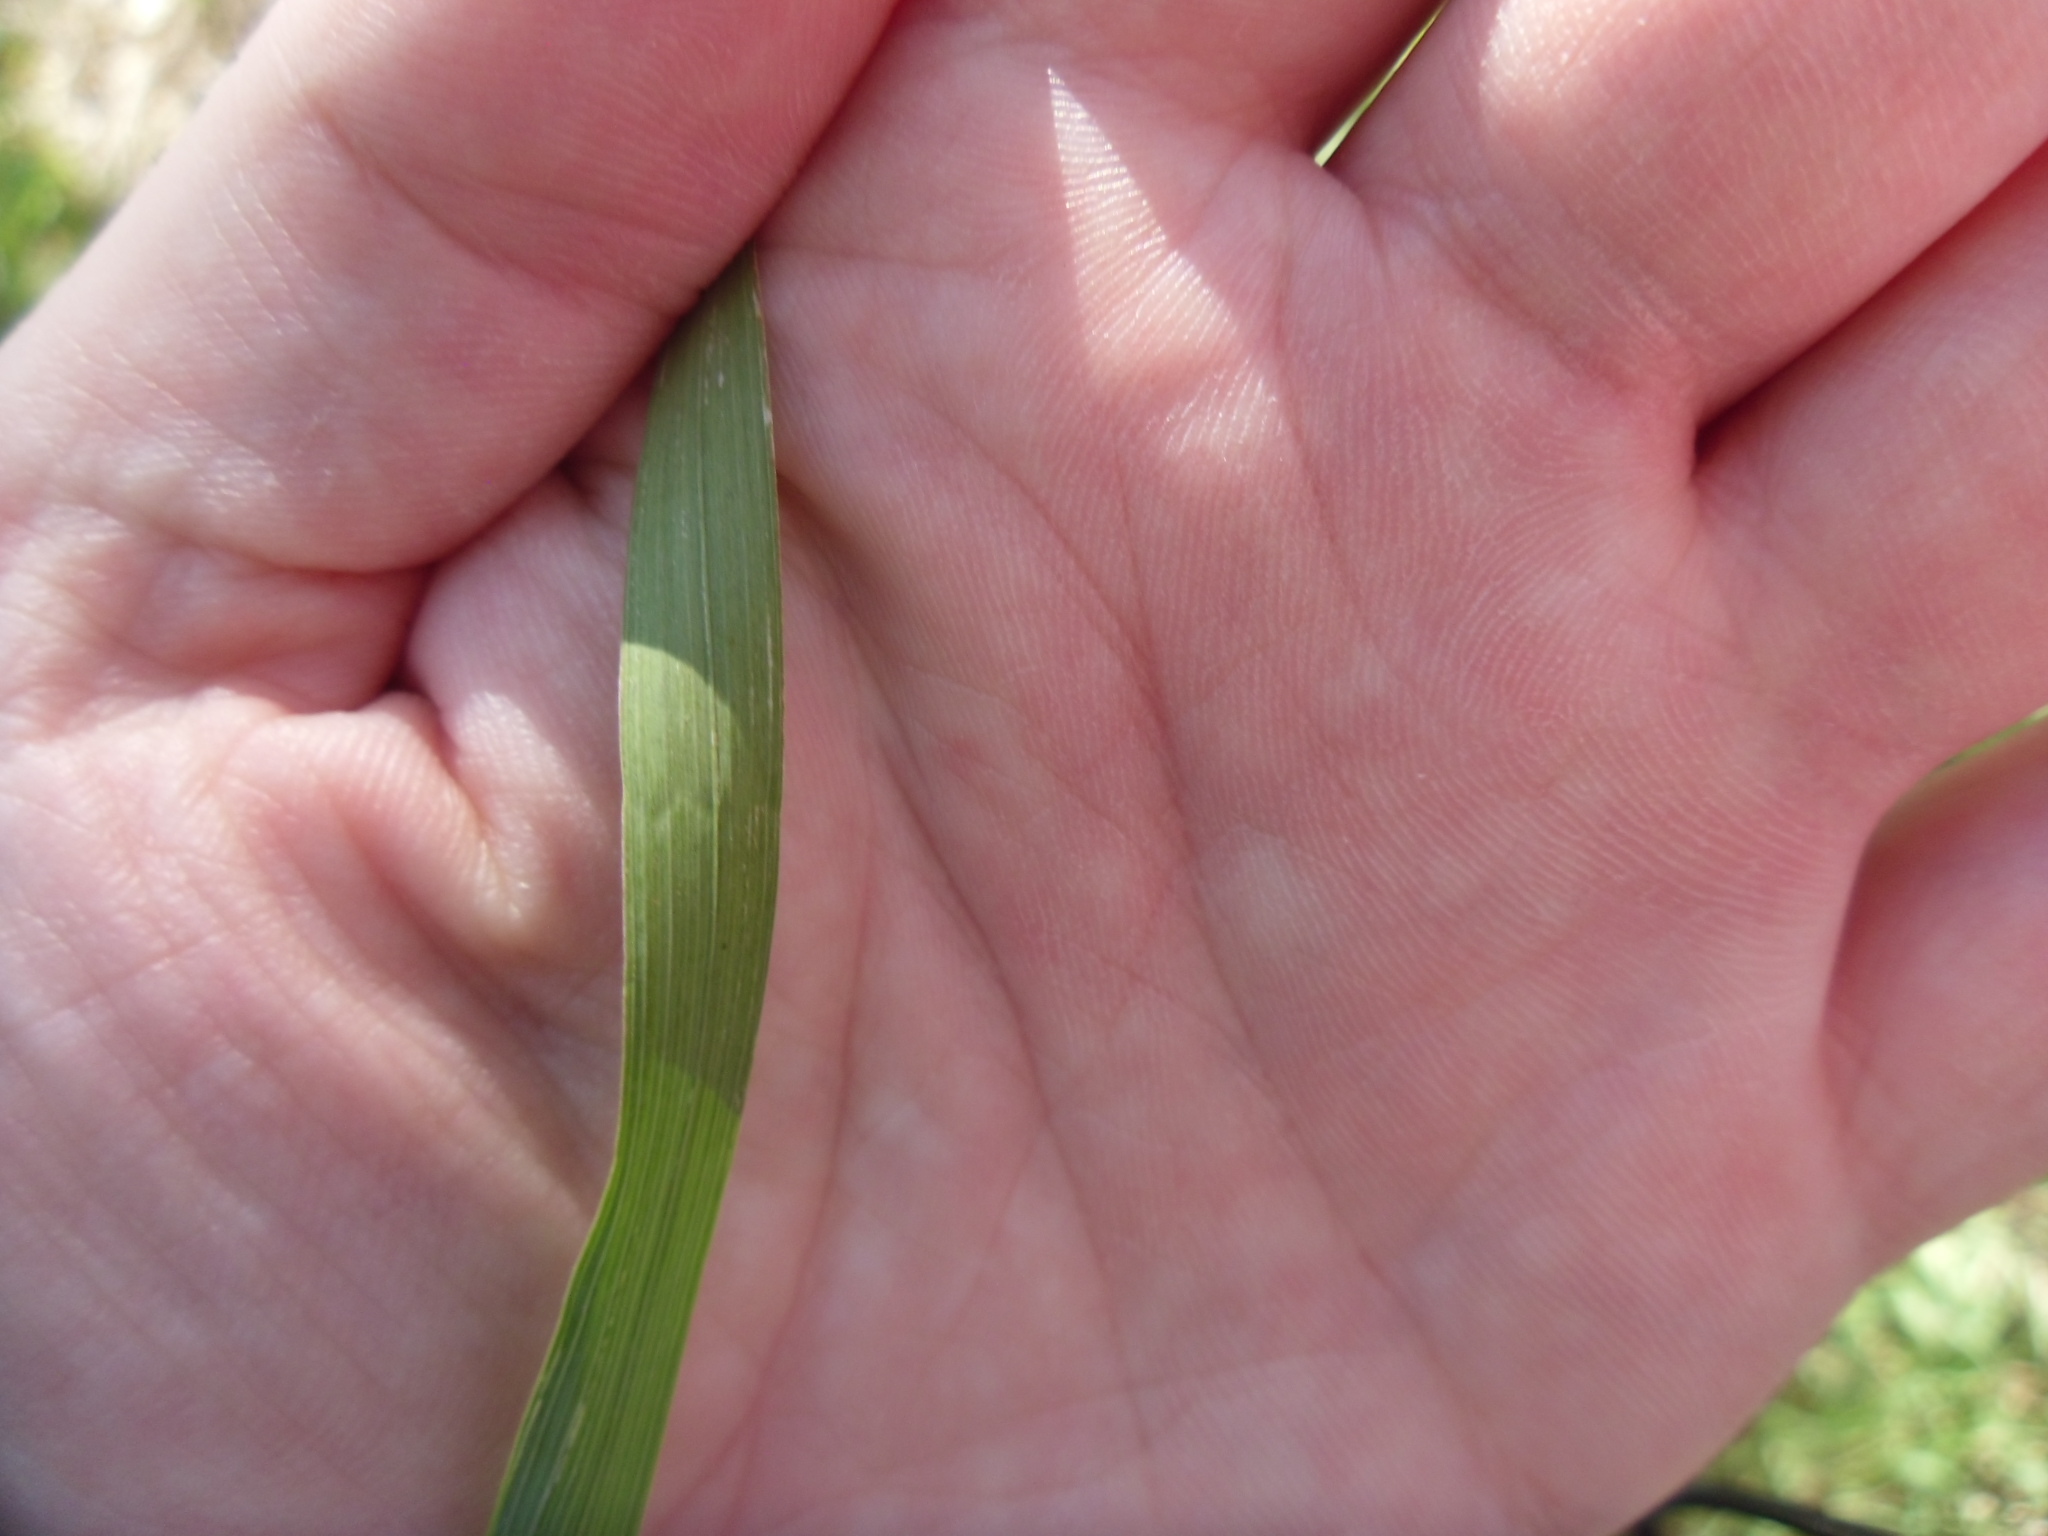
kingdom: Plantae
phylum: Tracheophyta
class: Liliopsida
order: Poales
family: Poaceae
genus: Bromus
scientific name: Bromus inermis
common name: Smooth brome
